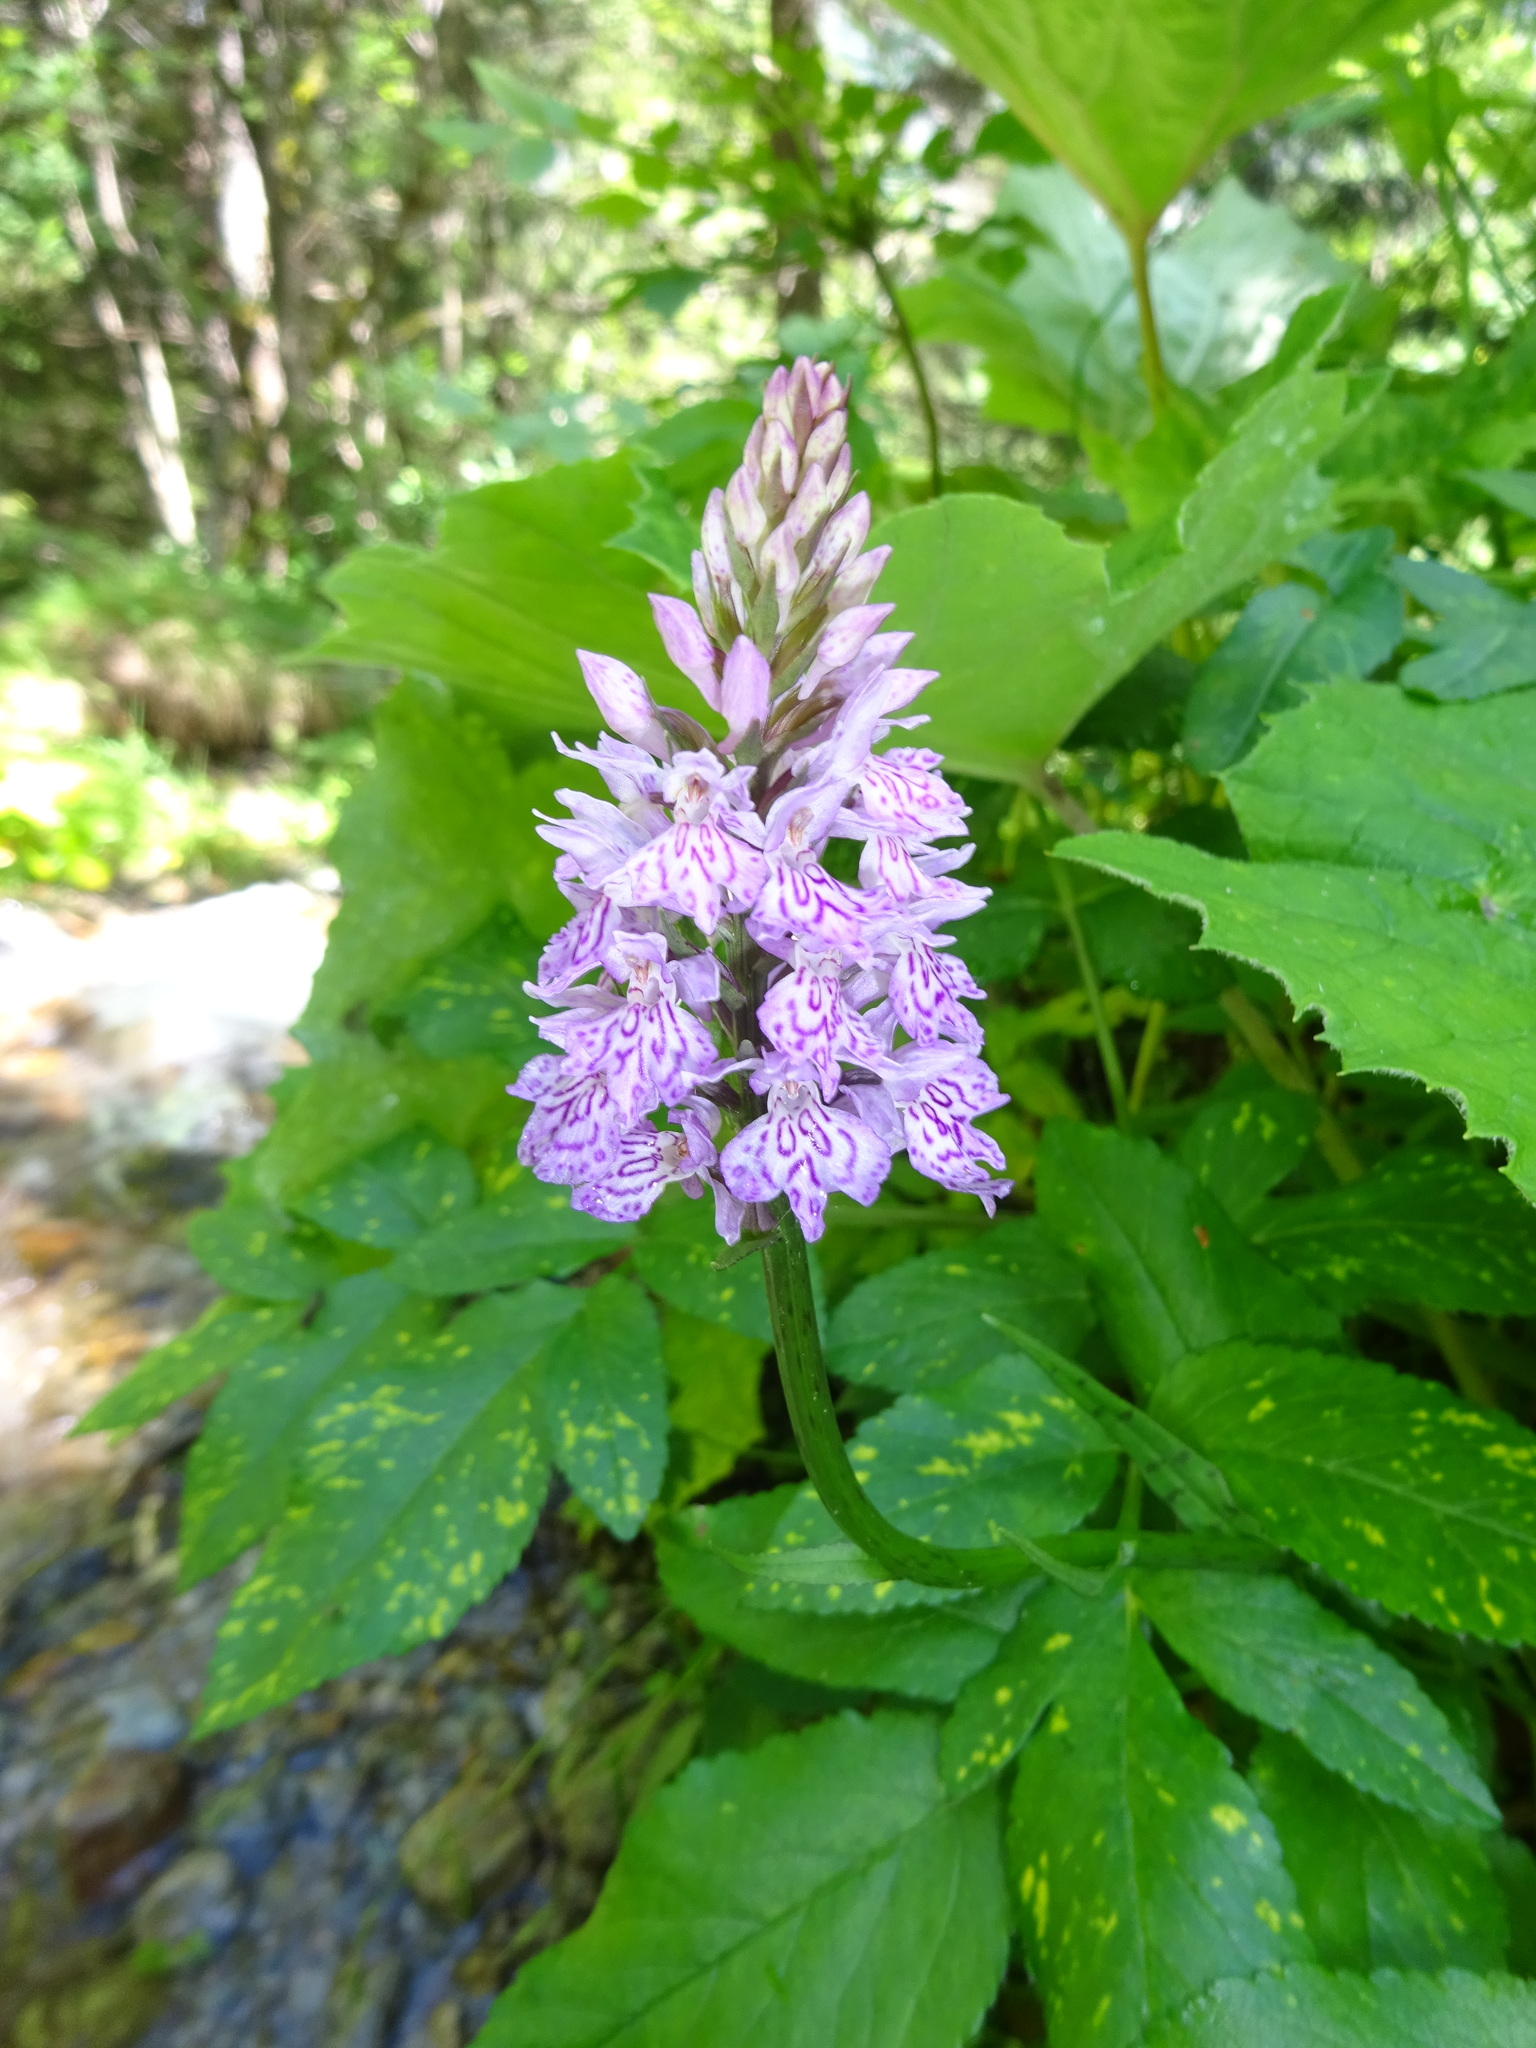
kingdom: Plantae
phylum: Tracheophyta
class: Liliopsida
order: Asparagales
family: Orchidaceae
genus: Dactylorhiza
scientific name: Dactylorhiza maculata
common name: Heath spotted-orchid
